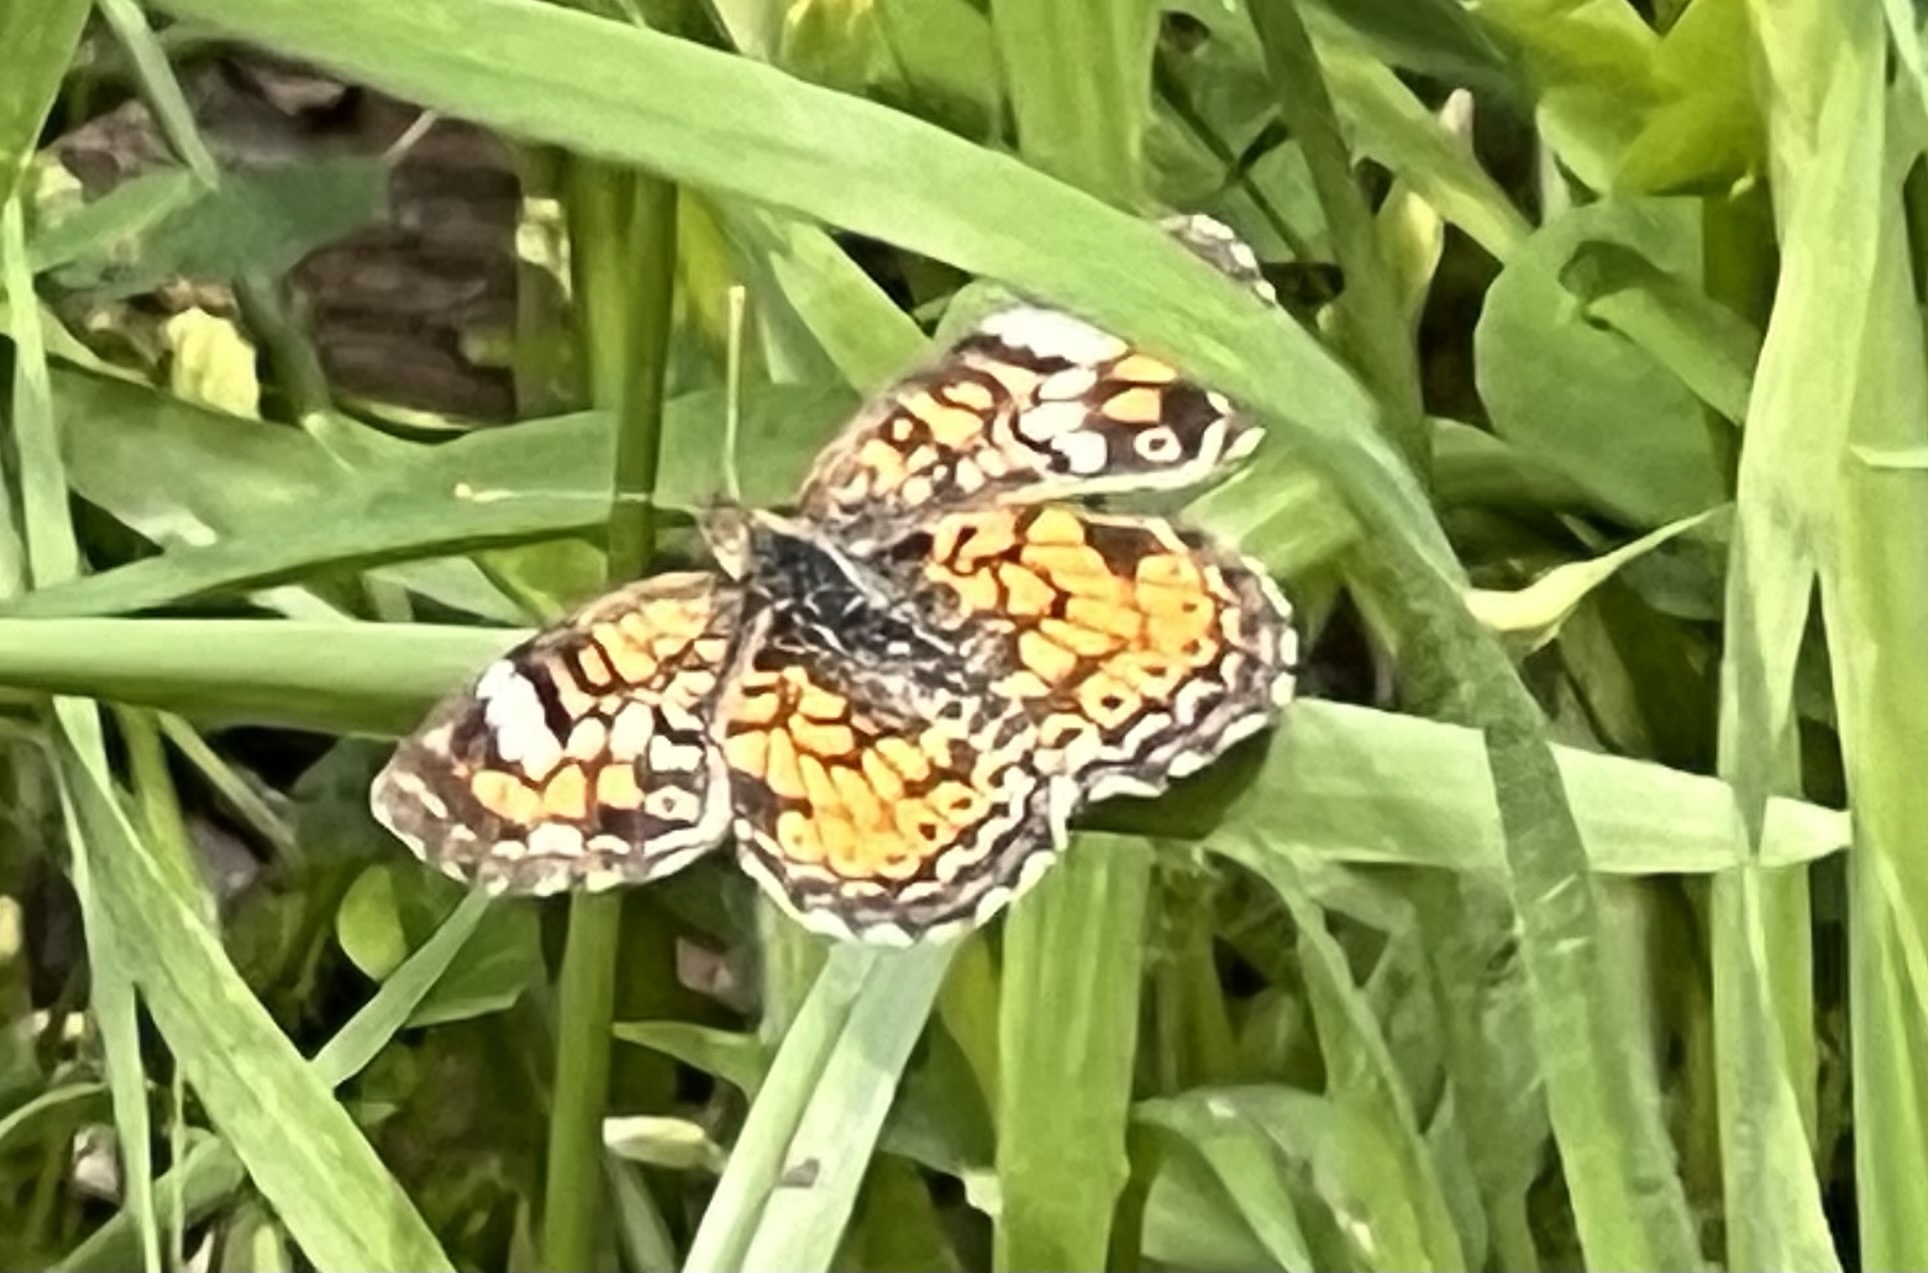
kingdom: Animalia
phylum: Arthropoda
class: Insecta
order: Lepidoptera
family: Nymphalidae
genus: Phyciodes
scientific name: Phyciodes phaon
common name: Phaon crescent
